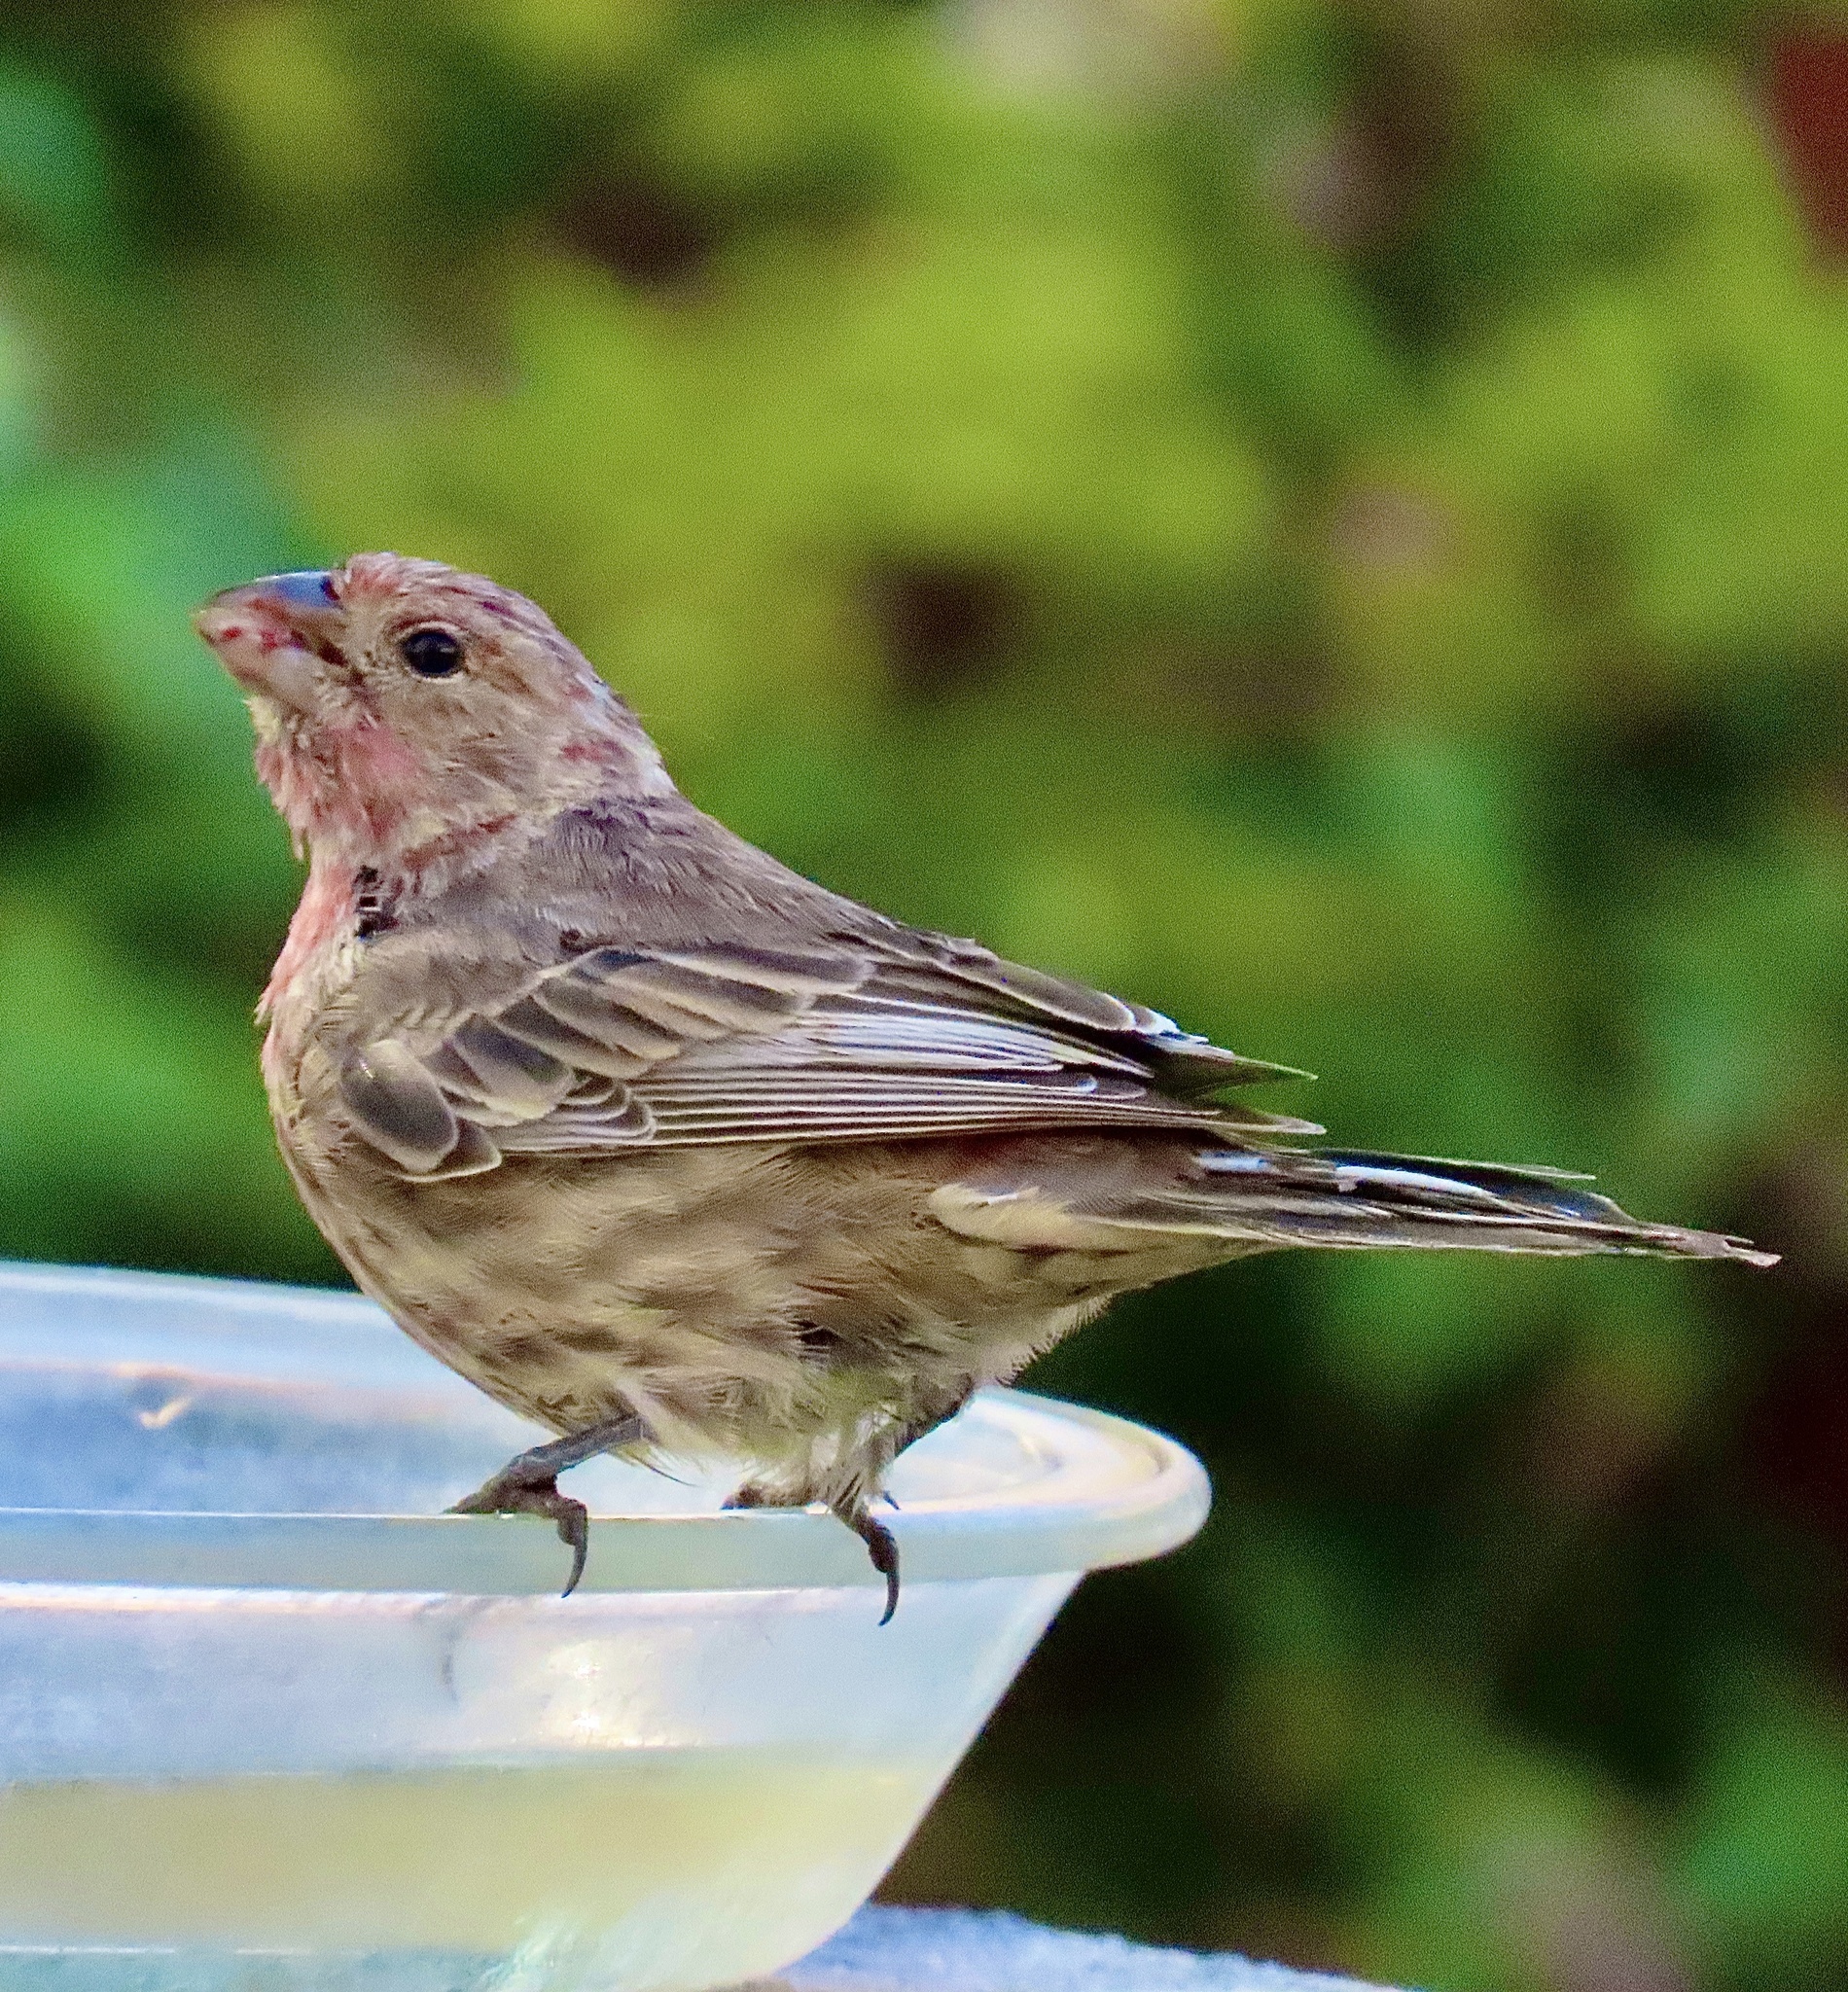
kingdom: Animalia
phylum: Chordata
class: Aves
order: Passeriformes
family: Fringillidae
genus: Haemorhous
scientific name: Haemorhous mexicanus
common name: House finch
